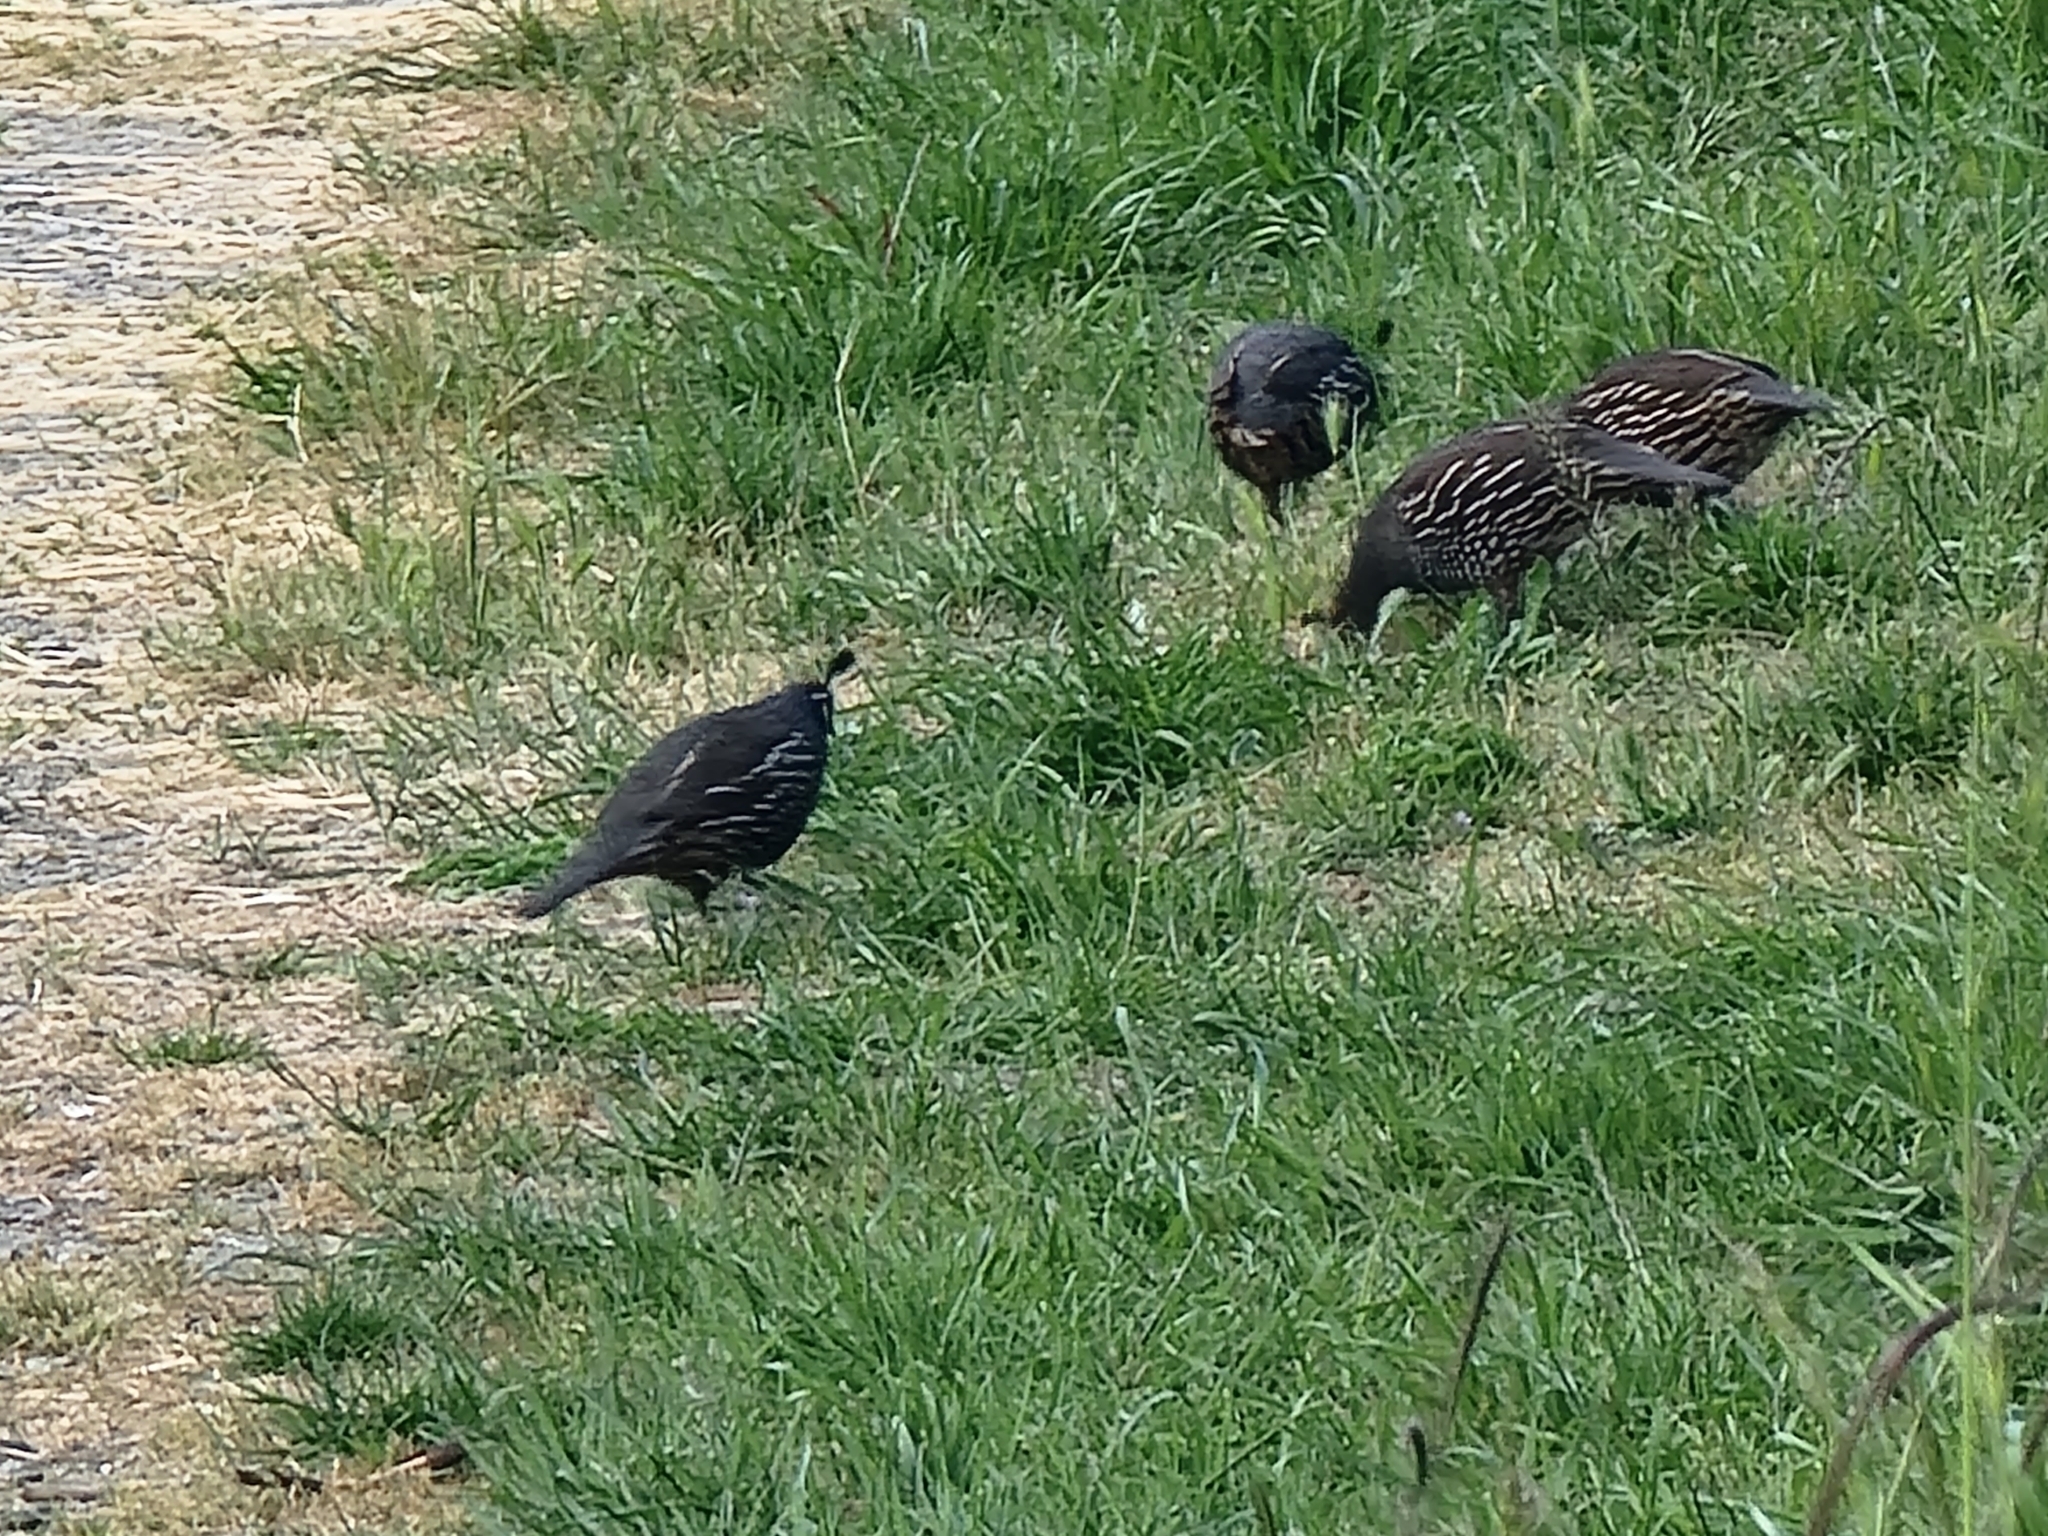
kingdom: Animalia
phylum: Chordata
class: Aves
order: Galliformes
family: Odontophoridae
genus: Callipepla
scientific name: Callipepla californica
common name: California quail
